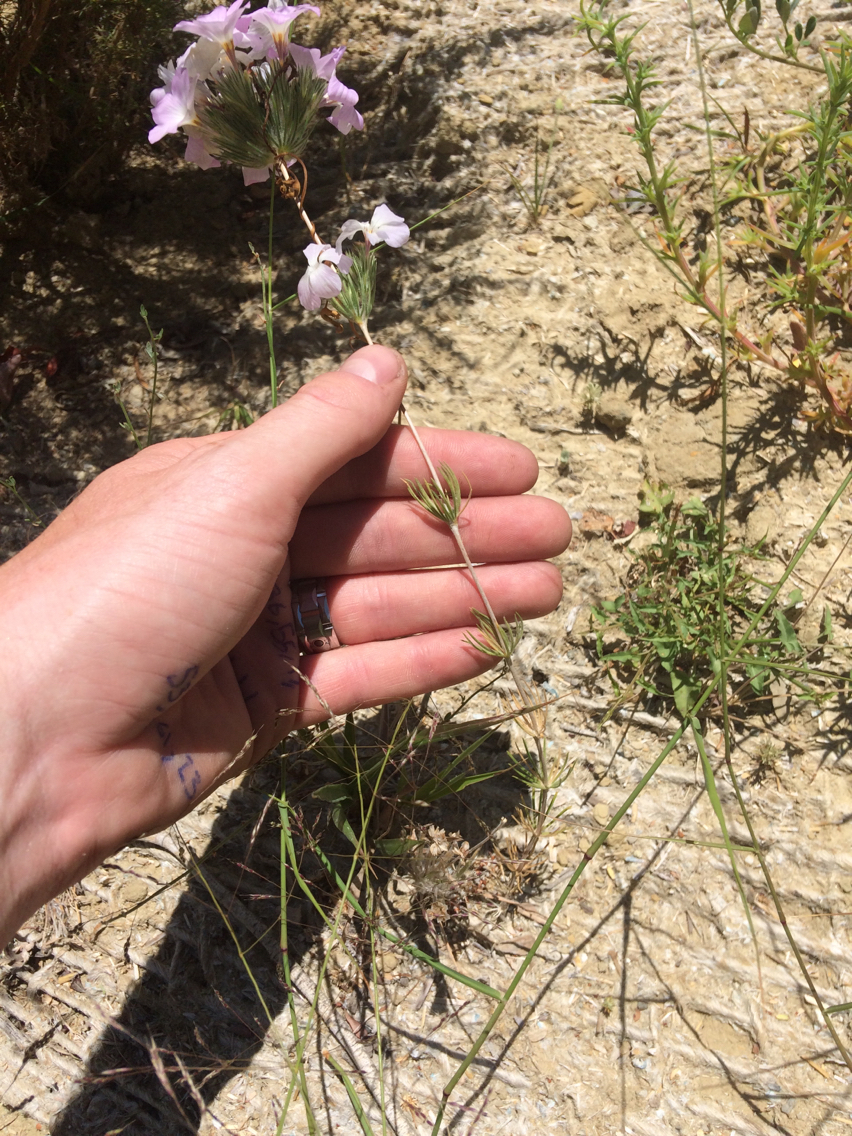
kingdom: Plantae
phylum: Tracheophyta
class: Magnoliopsida
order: Ericales
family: Polemoniaceae
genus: Leptosiphon
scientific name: Leptosiphon grandiflorus
